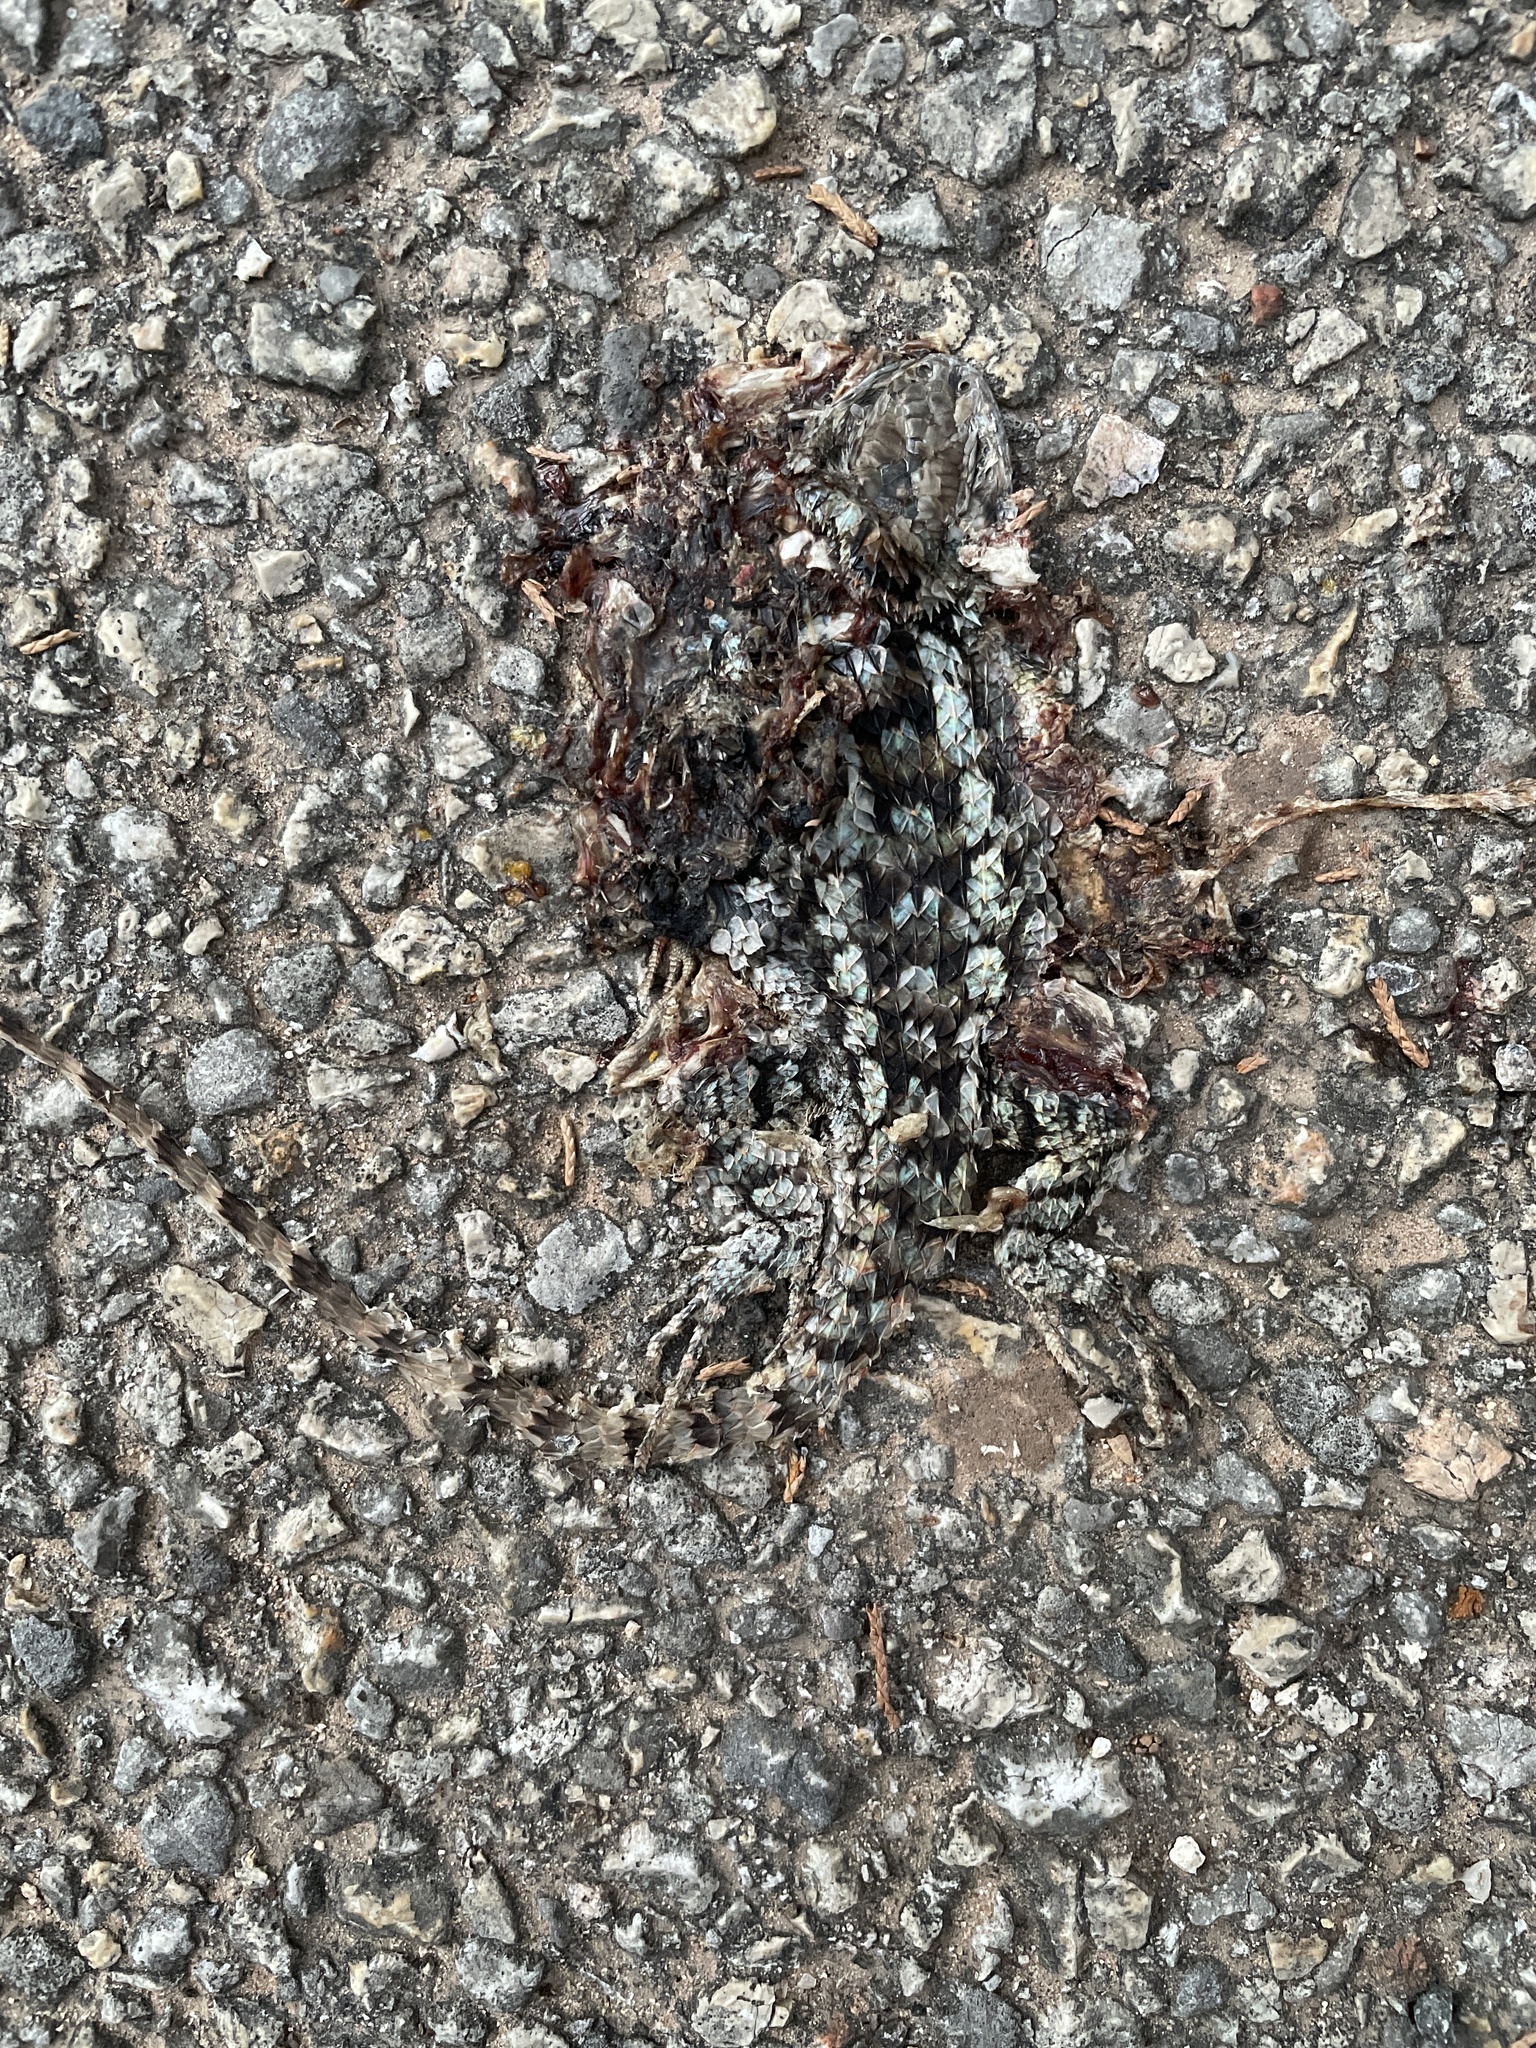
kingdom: Animalia
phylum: Chordata
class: Squamata
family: Phrynosomatidae
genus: Sceloporus
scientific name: Sceloporus olivaceus
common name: Texas spiny lizard
